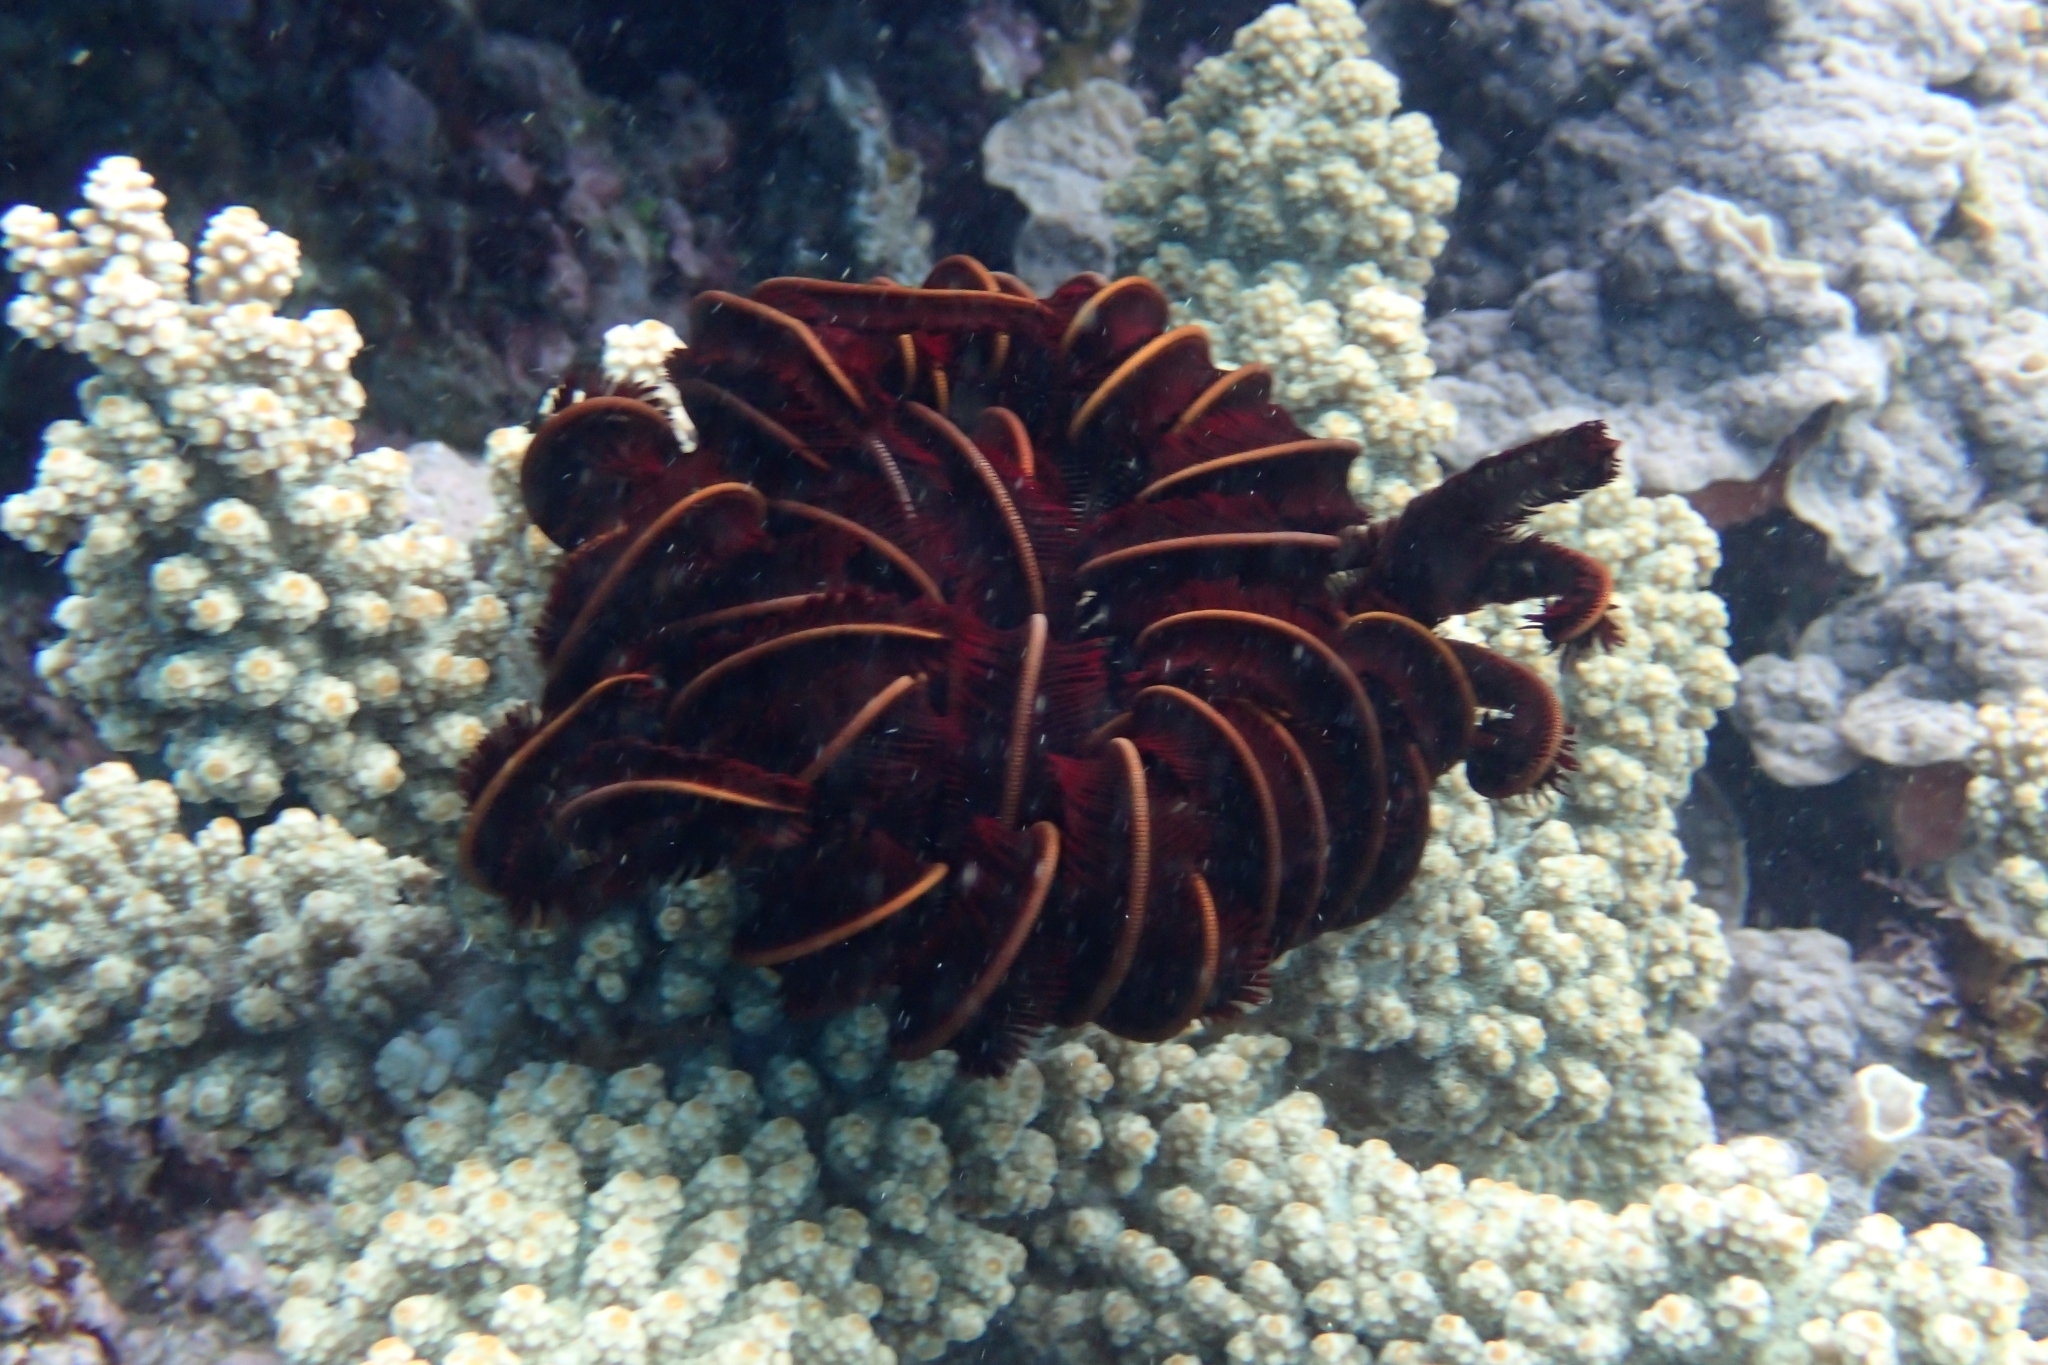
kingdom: Animalia
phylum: Echinodermata
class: Crinoidea
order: Comatulida
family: Himerometridae
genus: Himerometra
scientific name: Himerometra robustipinna
